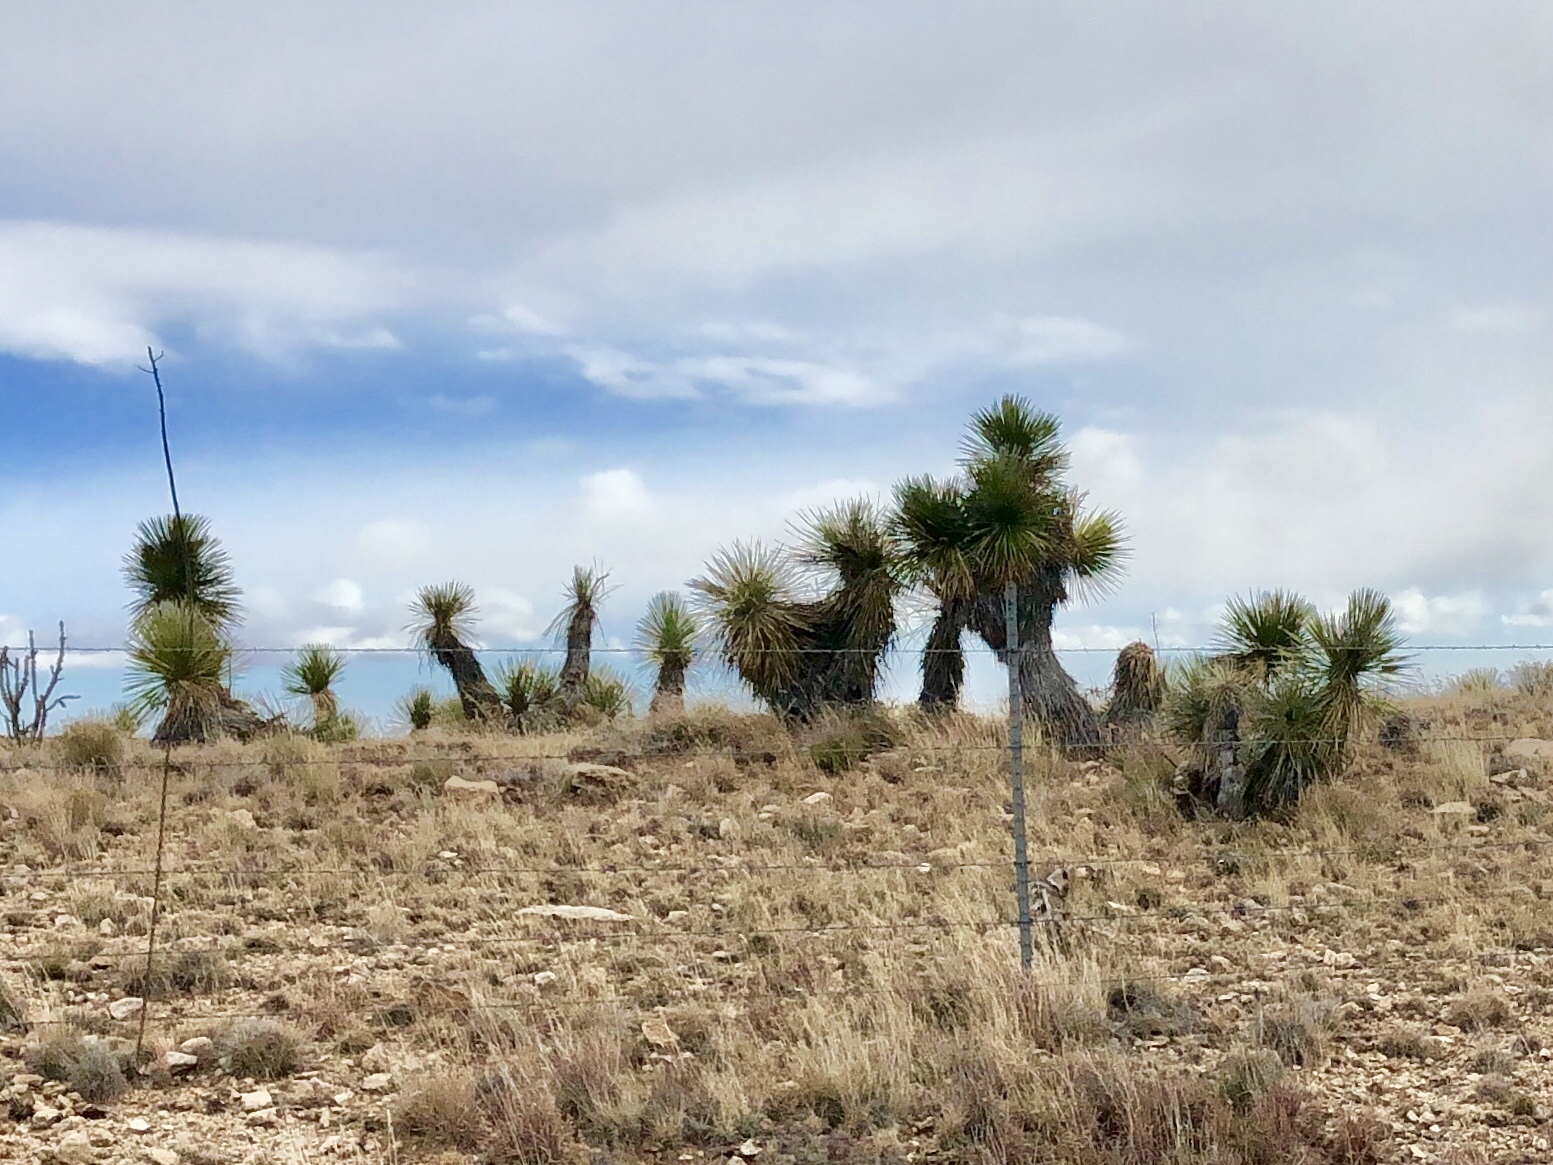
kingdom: Plantae
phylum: Tracheophyta
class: Liliopsida
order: Asparagales
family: Asparagaceae
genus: Yucca
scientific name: Yucca elata
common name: Palmella
